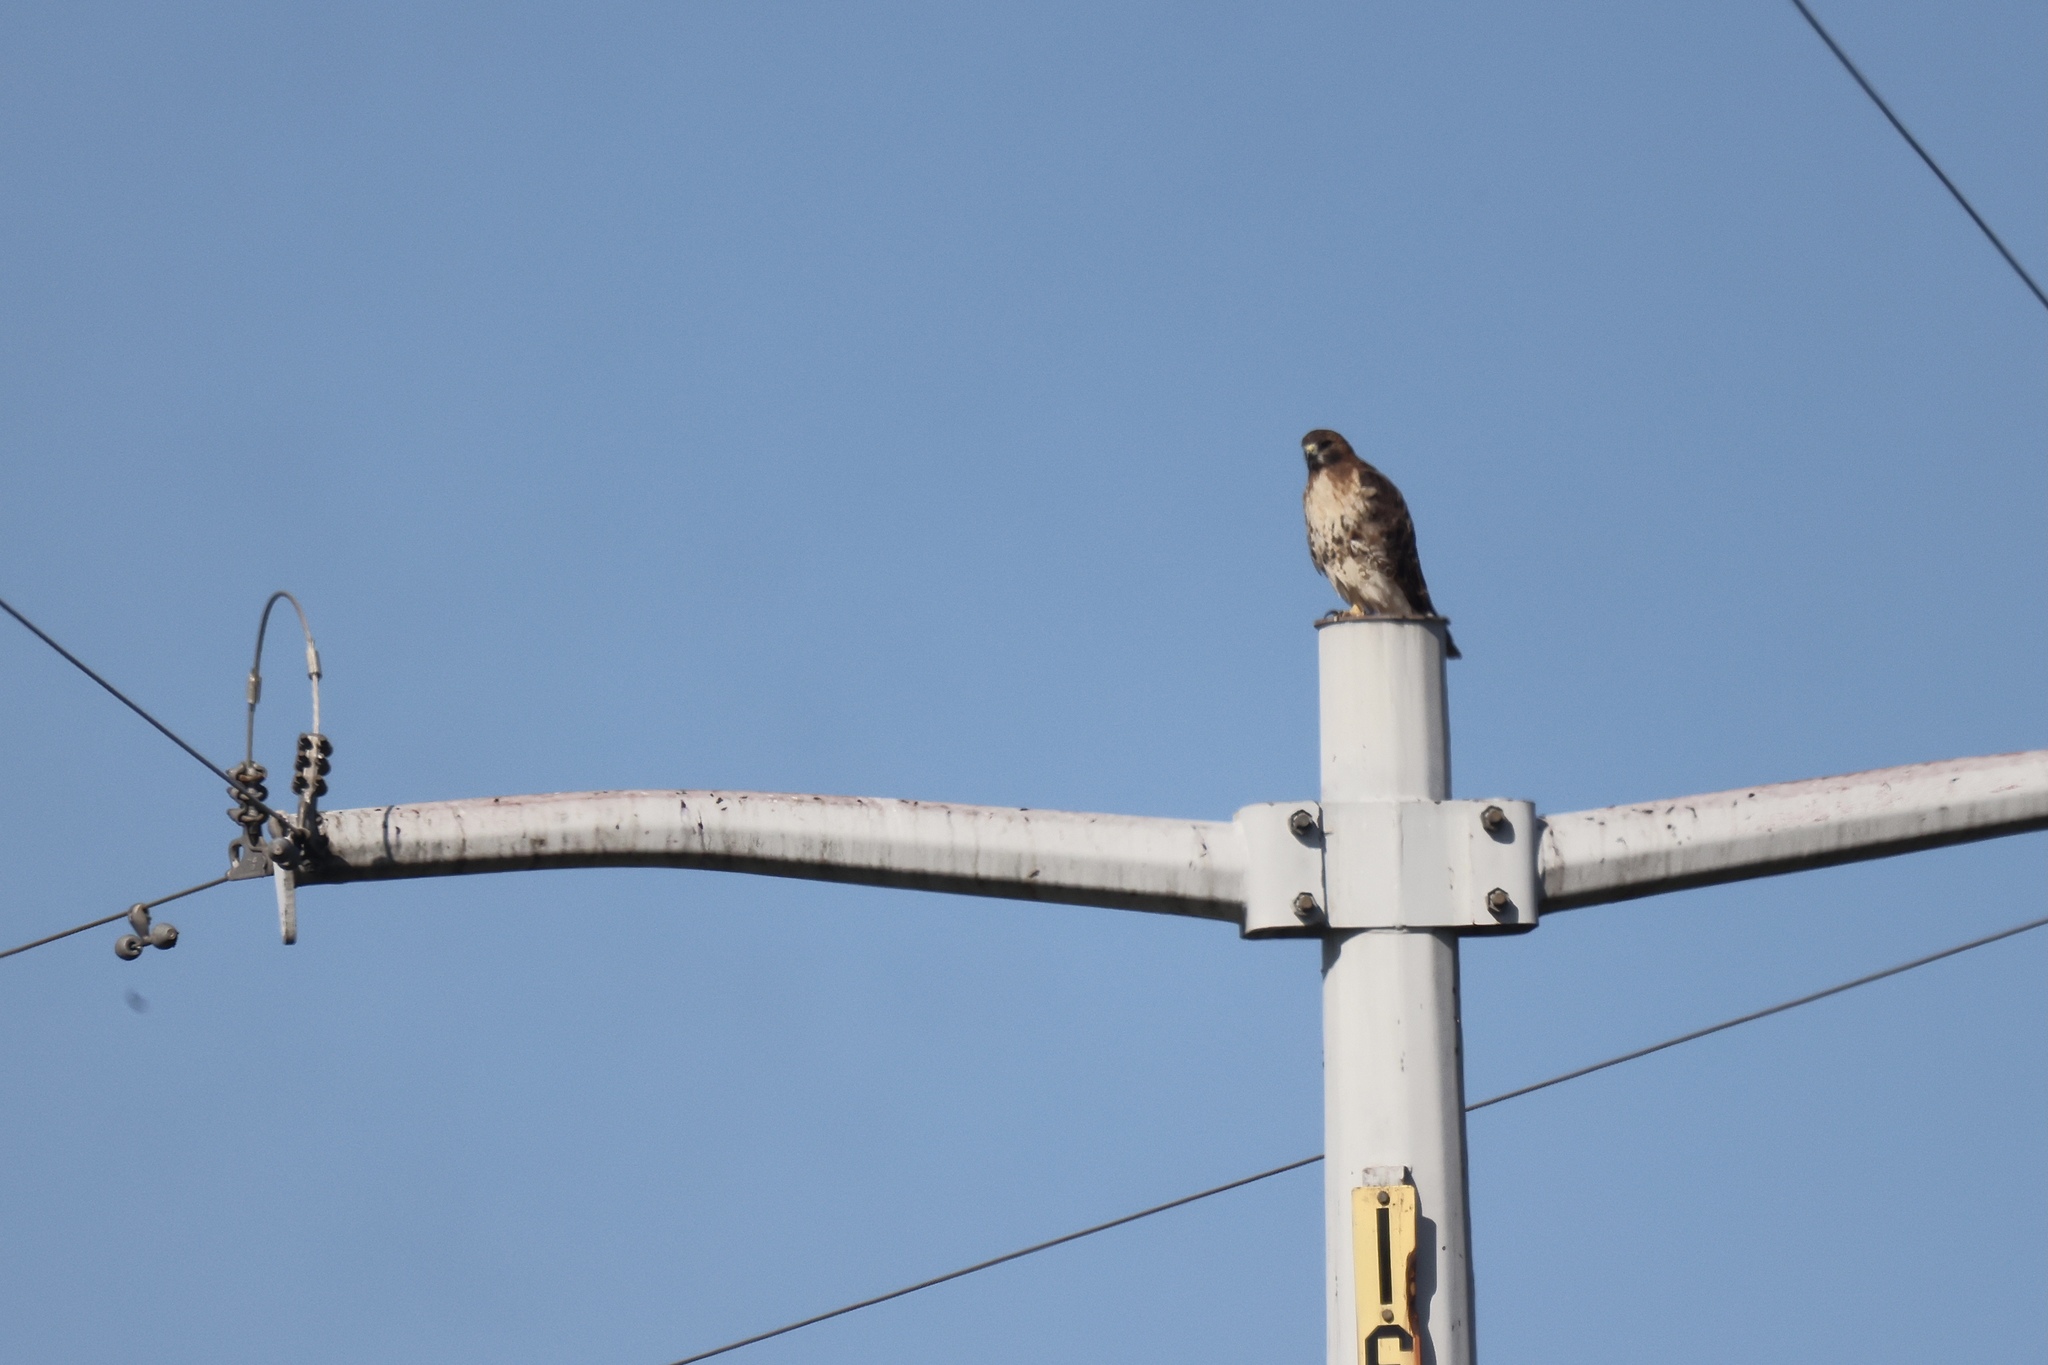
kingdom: Animalia
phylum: Chordata
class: Aves
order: Accipitriformes
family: Accipitridae
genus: Buteo
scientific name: Buteo jamaicensis
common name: Red-tailed hawk
